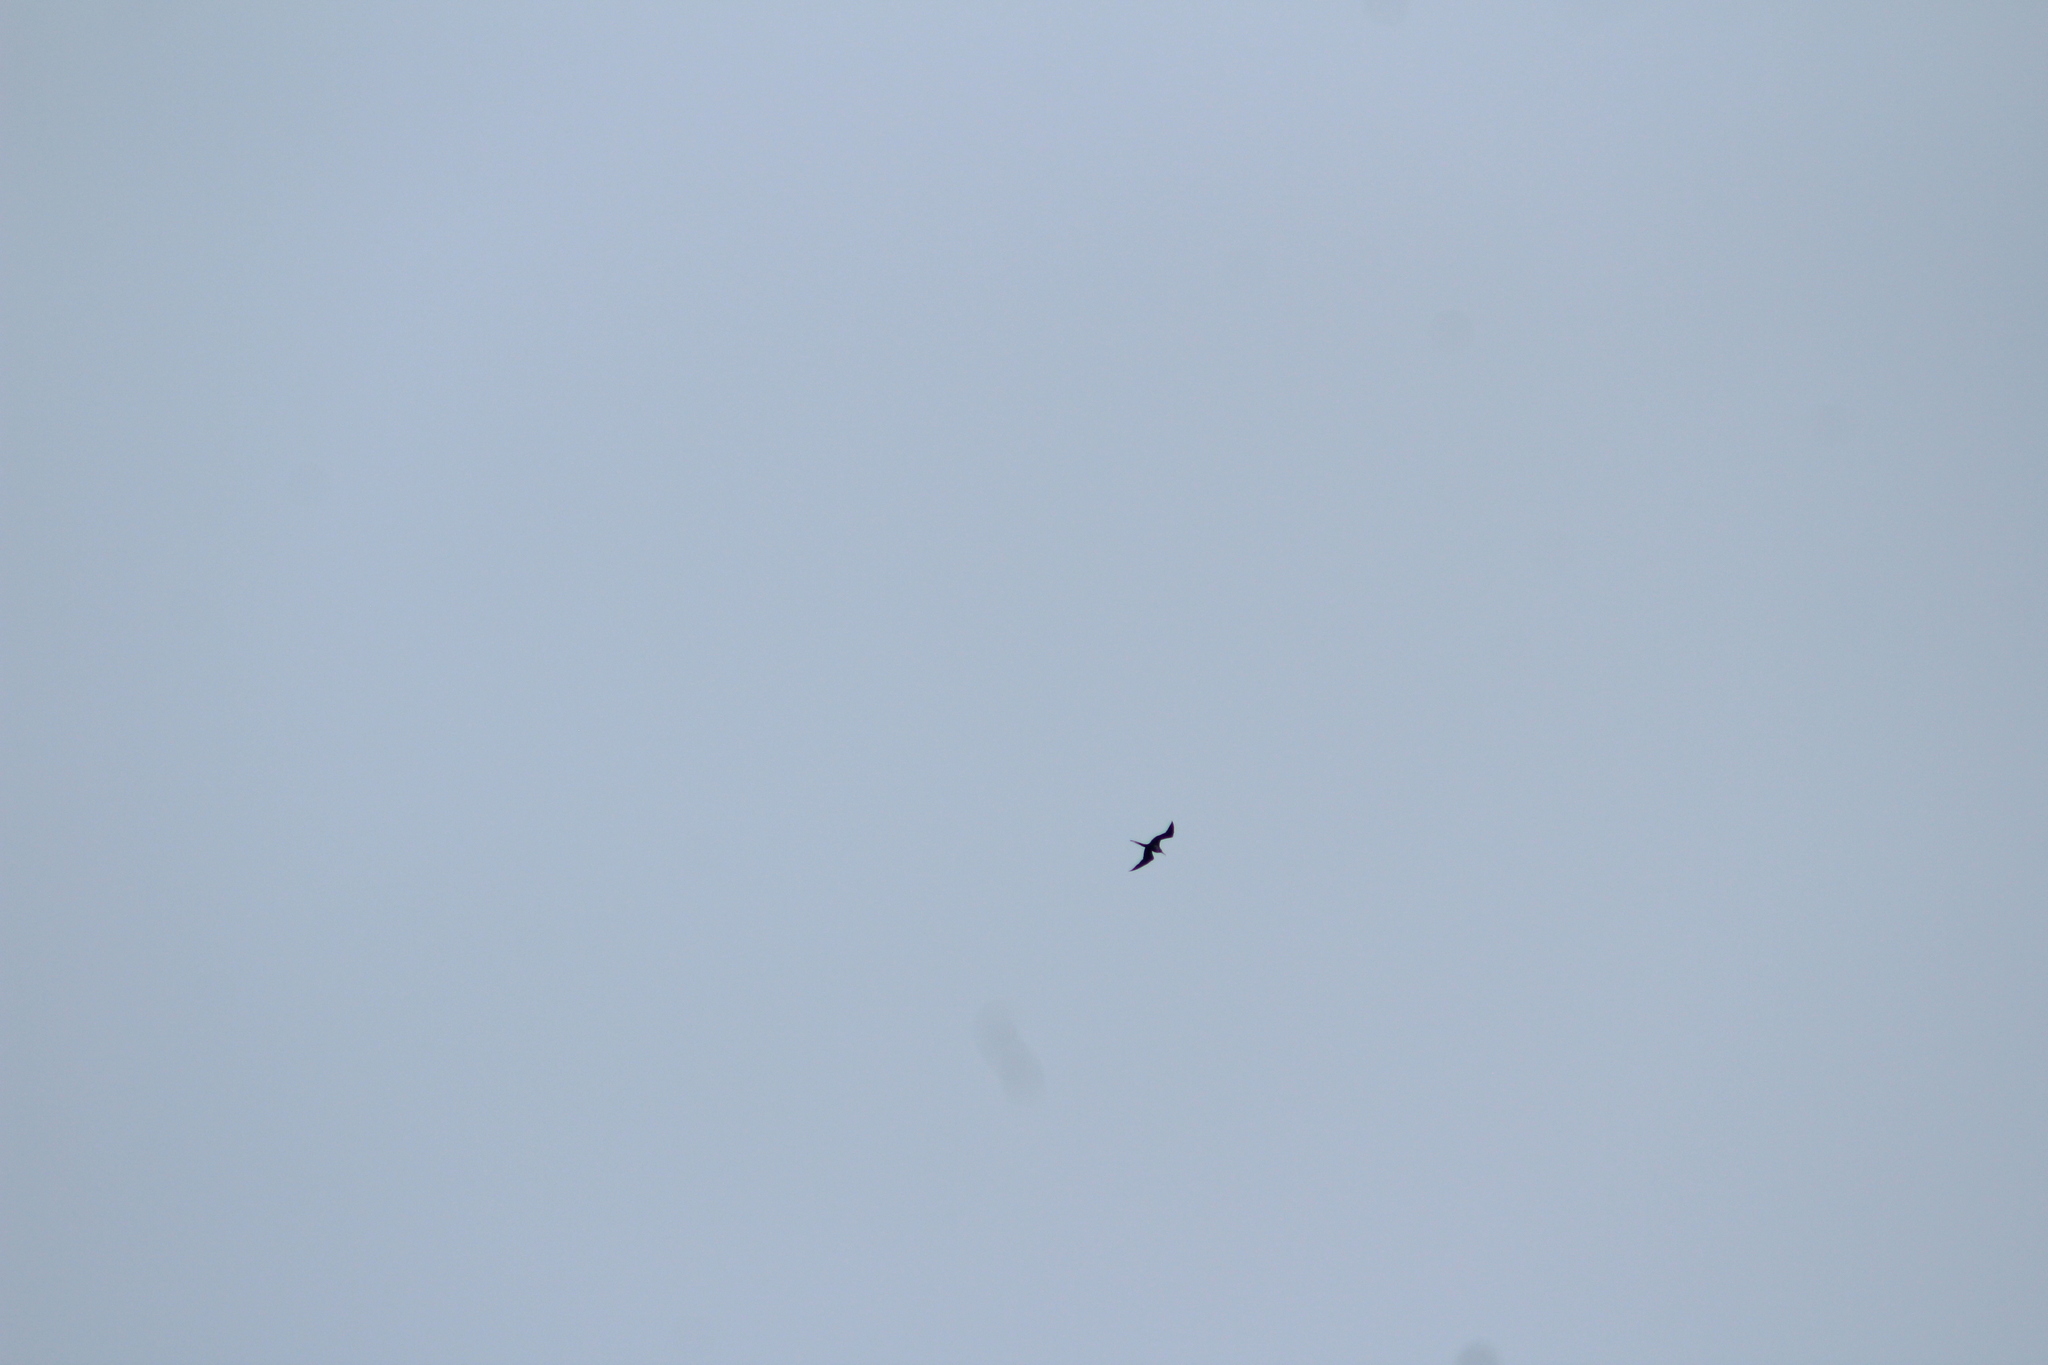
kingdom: Animalia
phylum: Chordata
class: Aves
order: Suliformes
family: Fregatidae
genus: Fregata
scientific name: Fregata minor
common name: Great frigatebird
